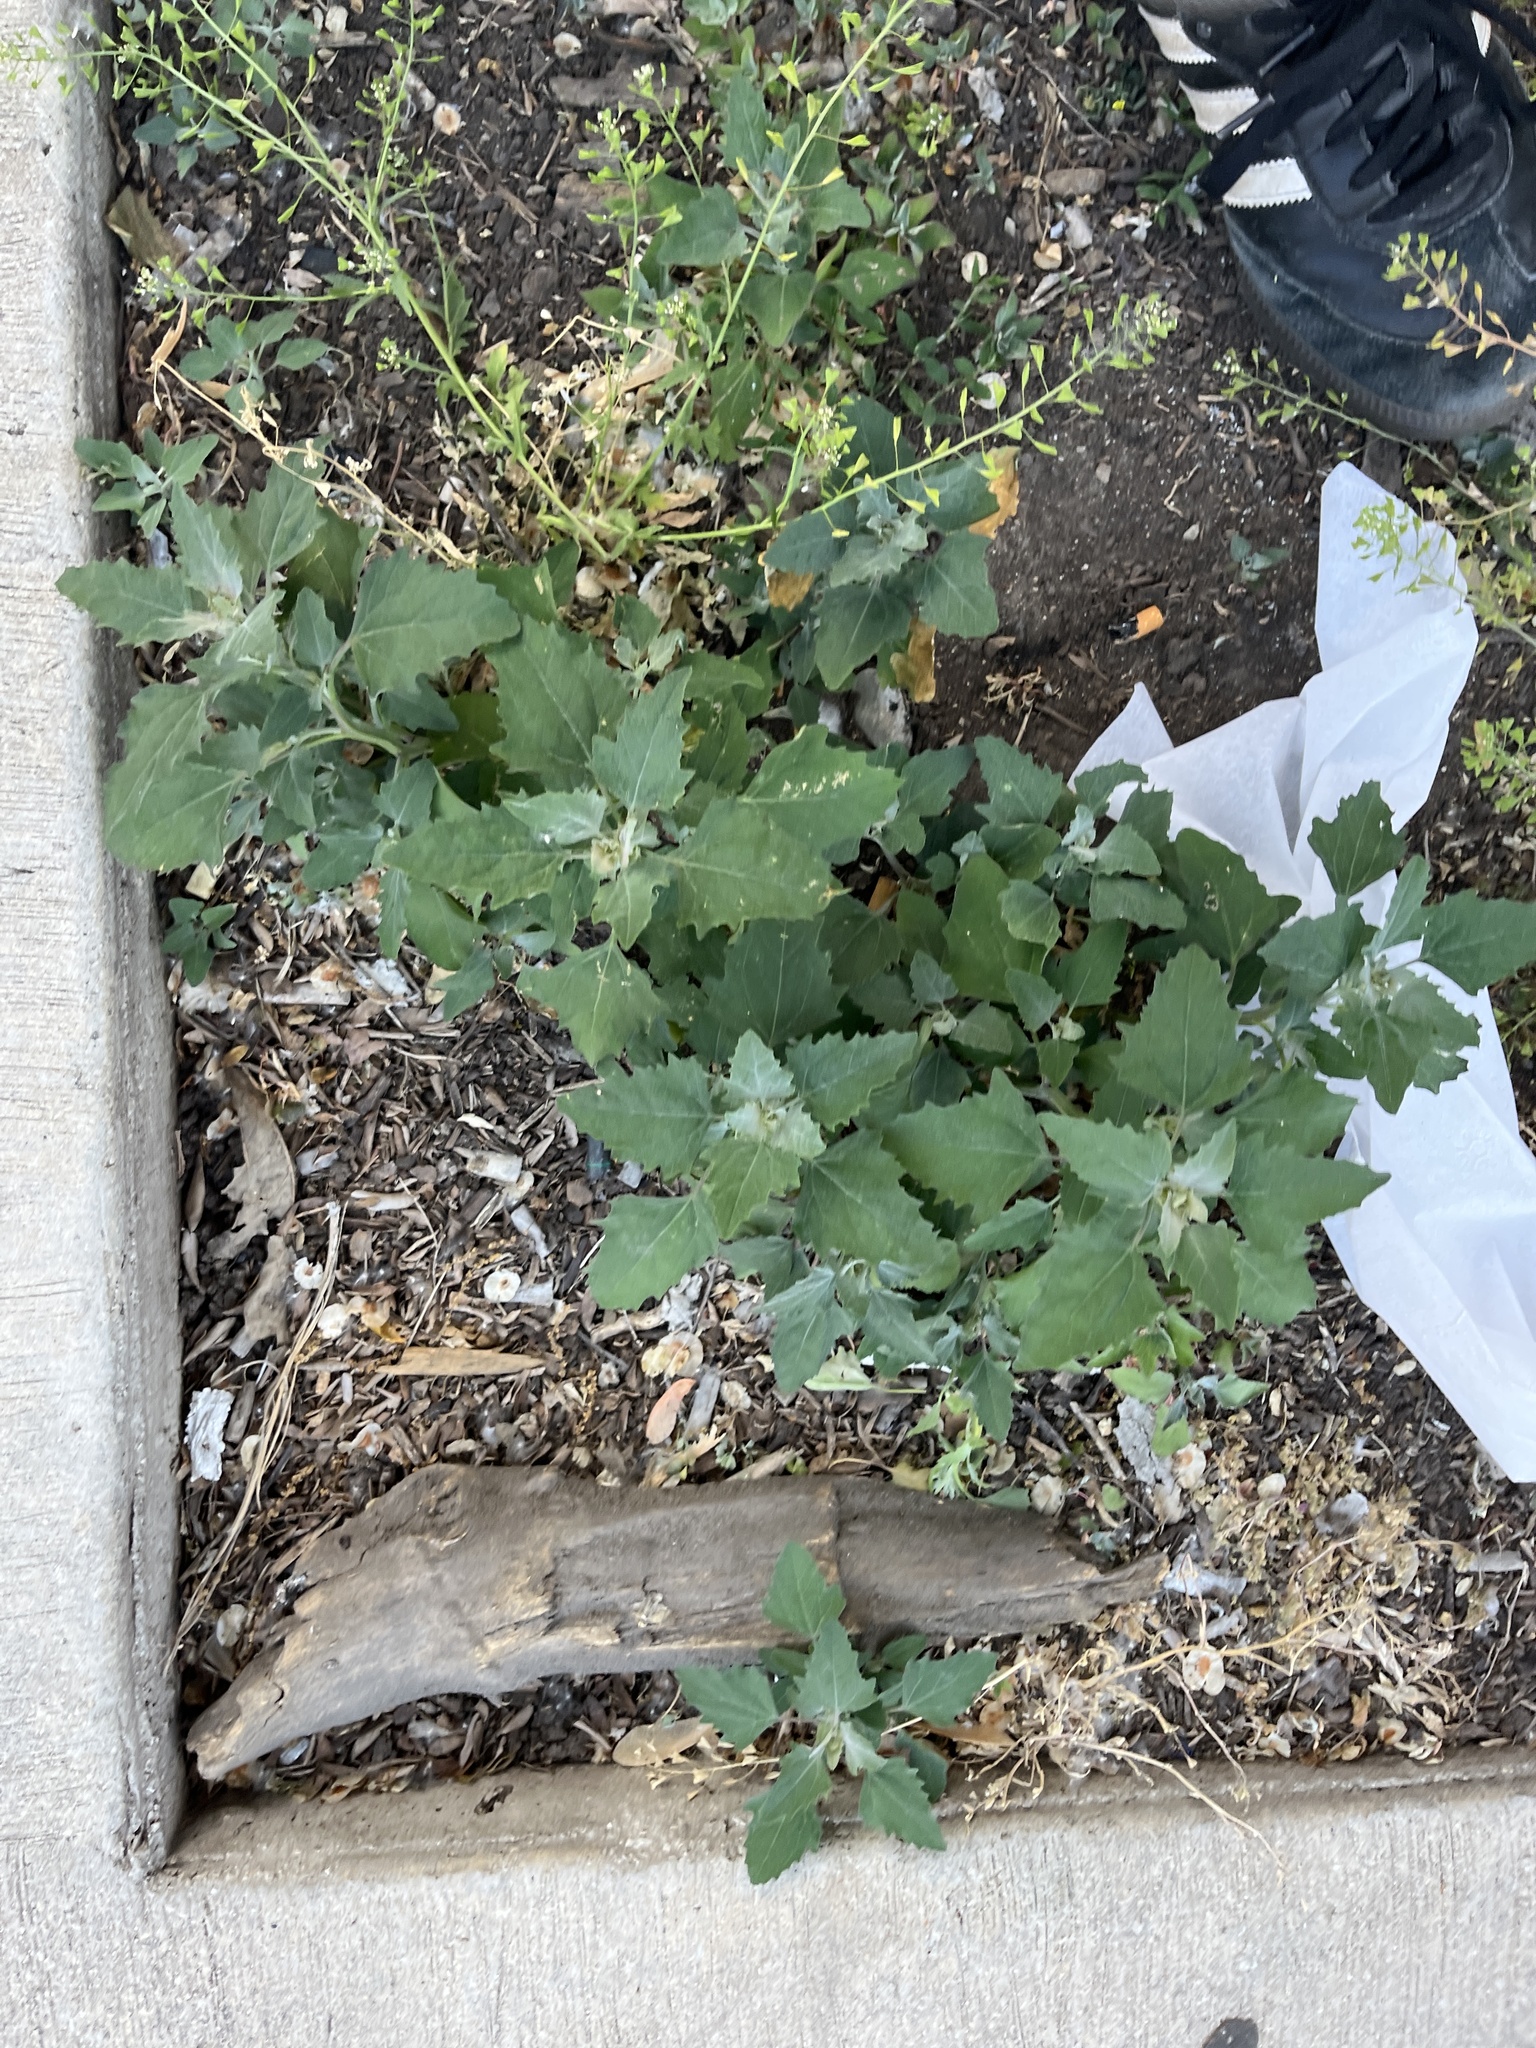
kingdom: Plantae
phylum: Tracheophyta
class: Magnoliopsida
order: Caryophyllales
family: Amaranthaceae
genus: Chenopodium
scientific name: Chenopodium album
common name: Fat-hen
